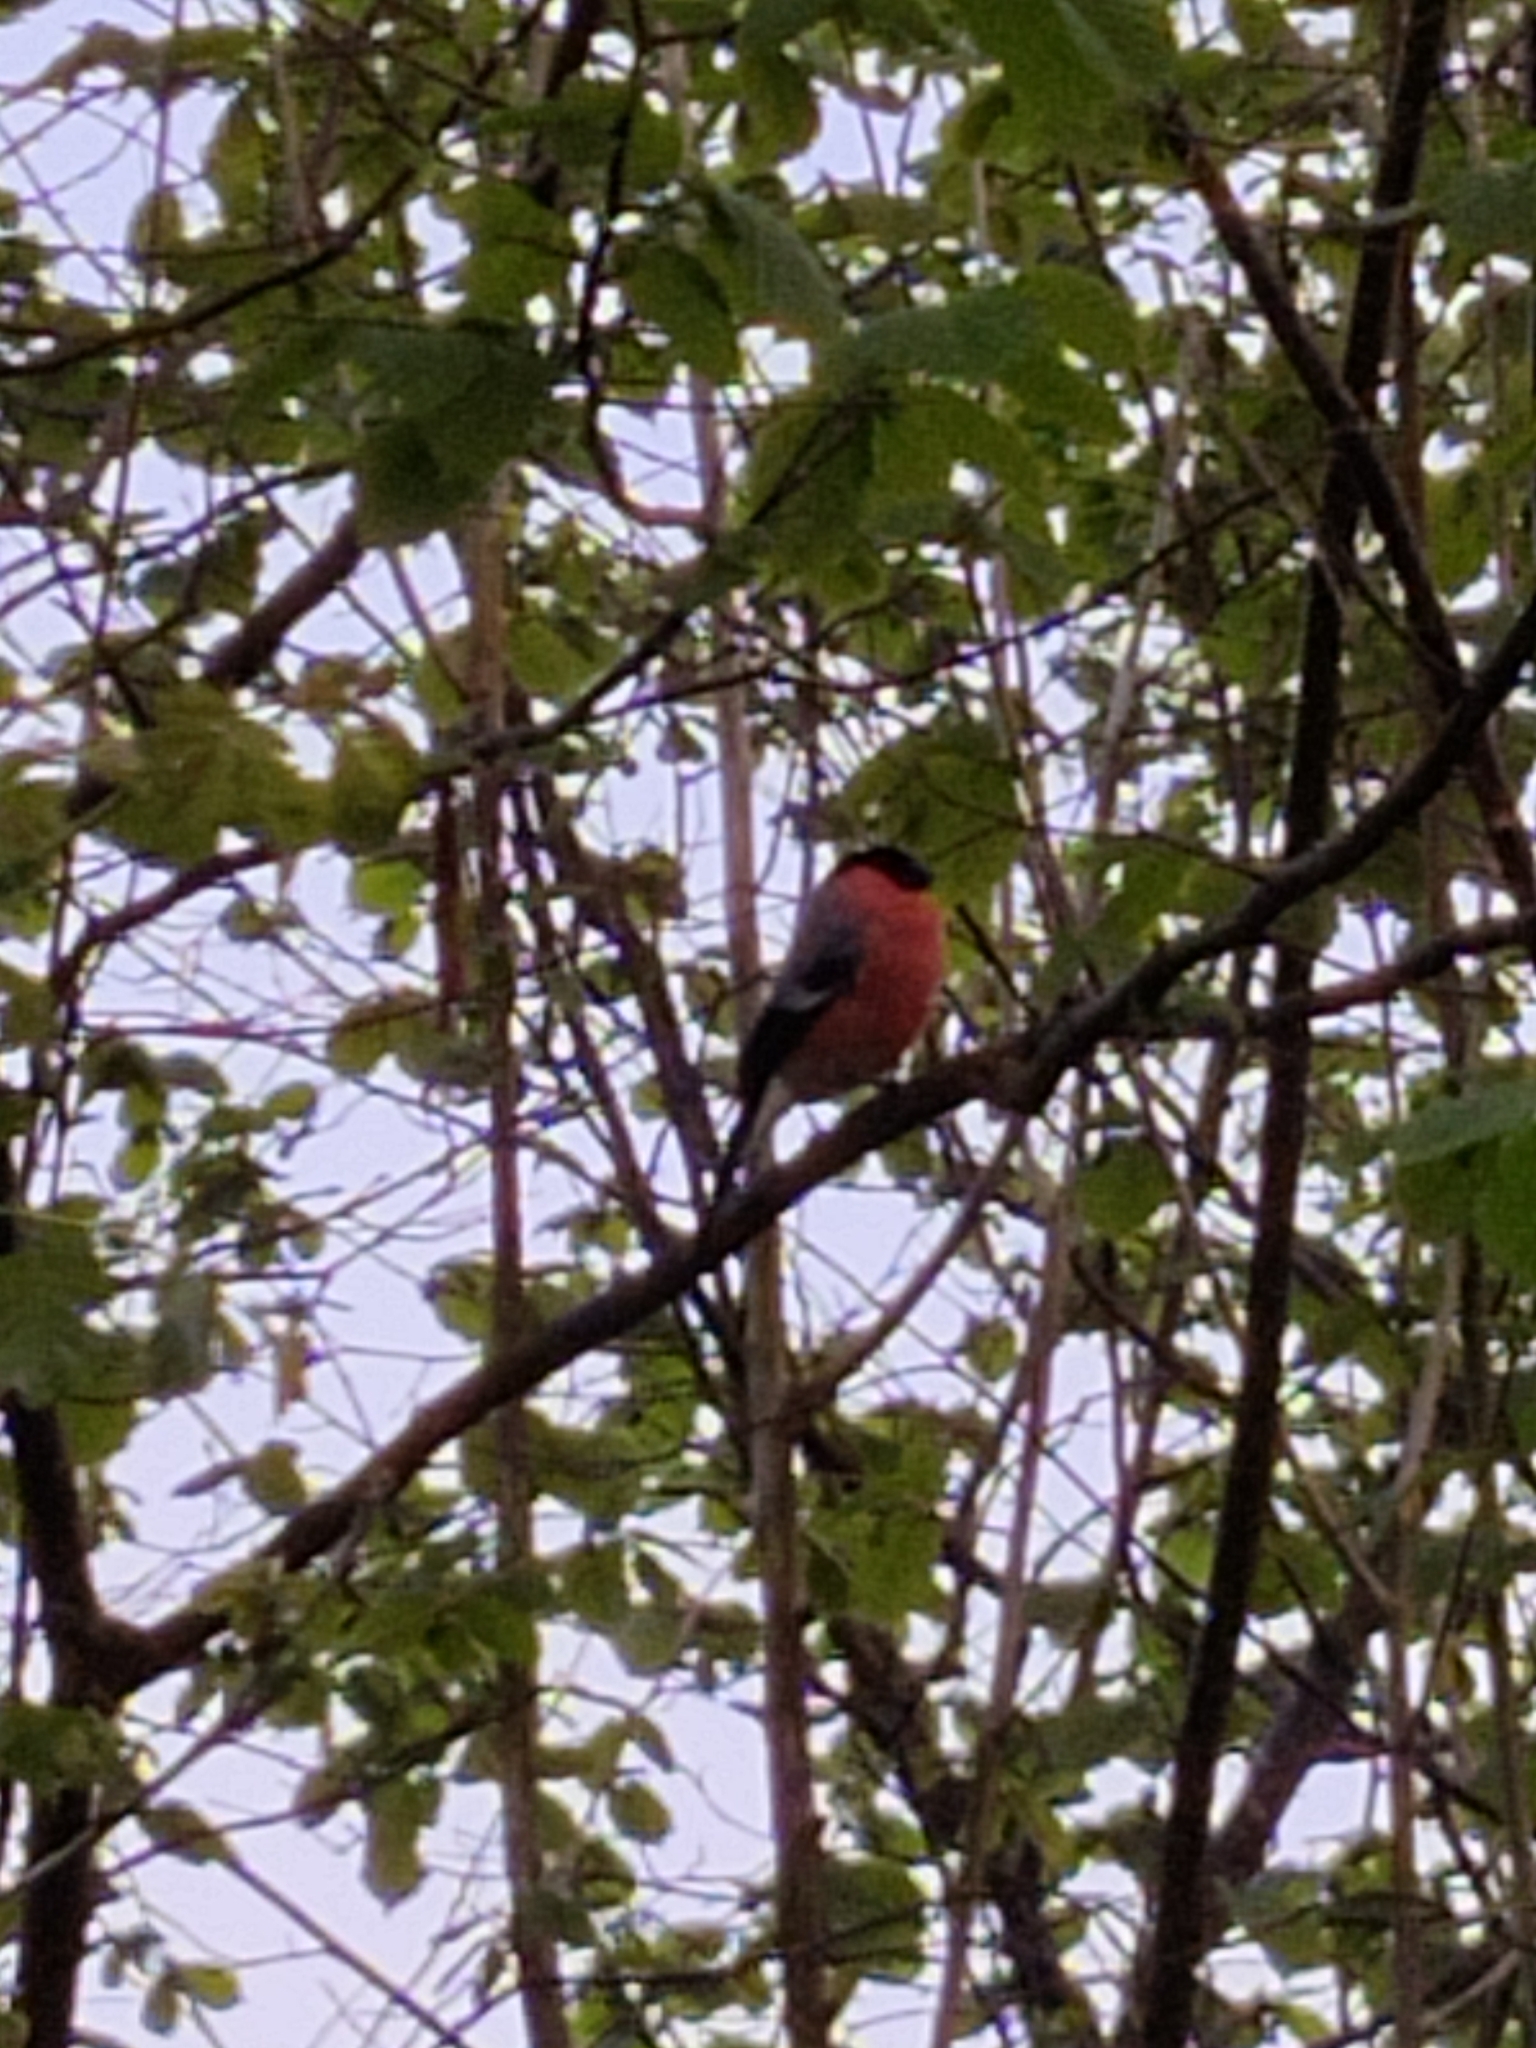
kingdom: Animalia
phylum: Chordata
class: Aves
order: Passeriformes
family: Fringillidae
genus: Pyrrhula
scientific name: Pyrrhula pyrrhula
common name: Eurasian bullfinch
